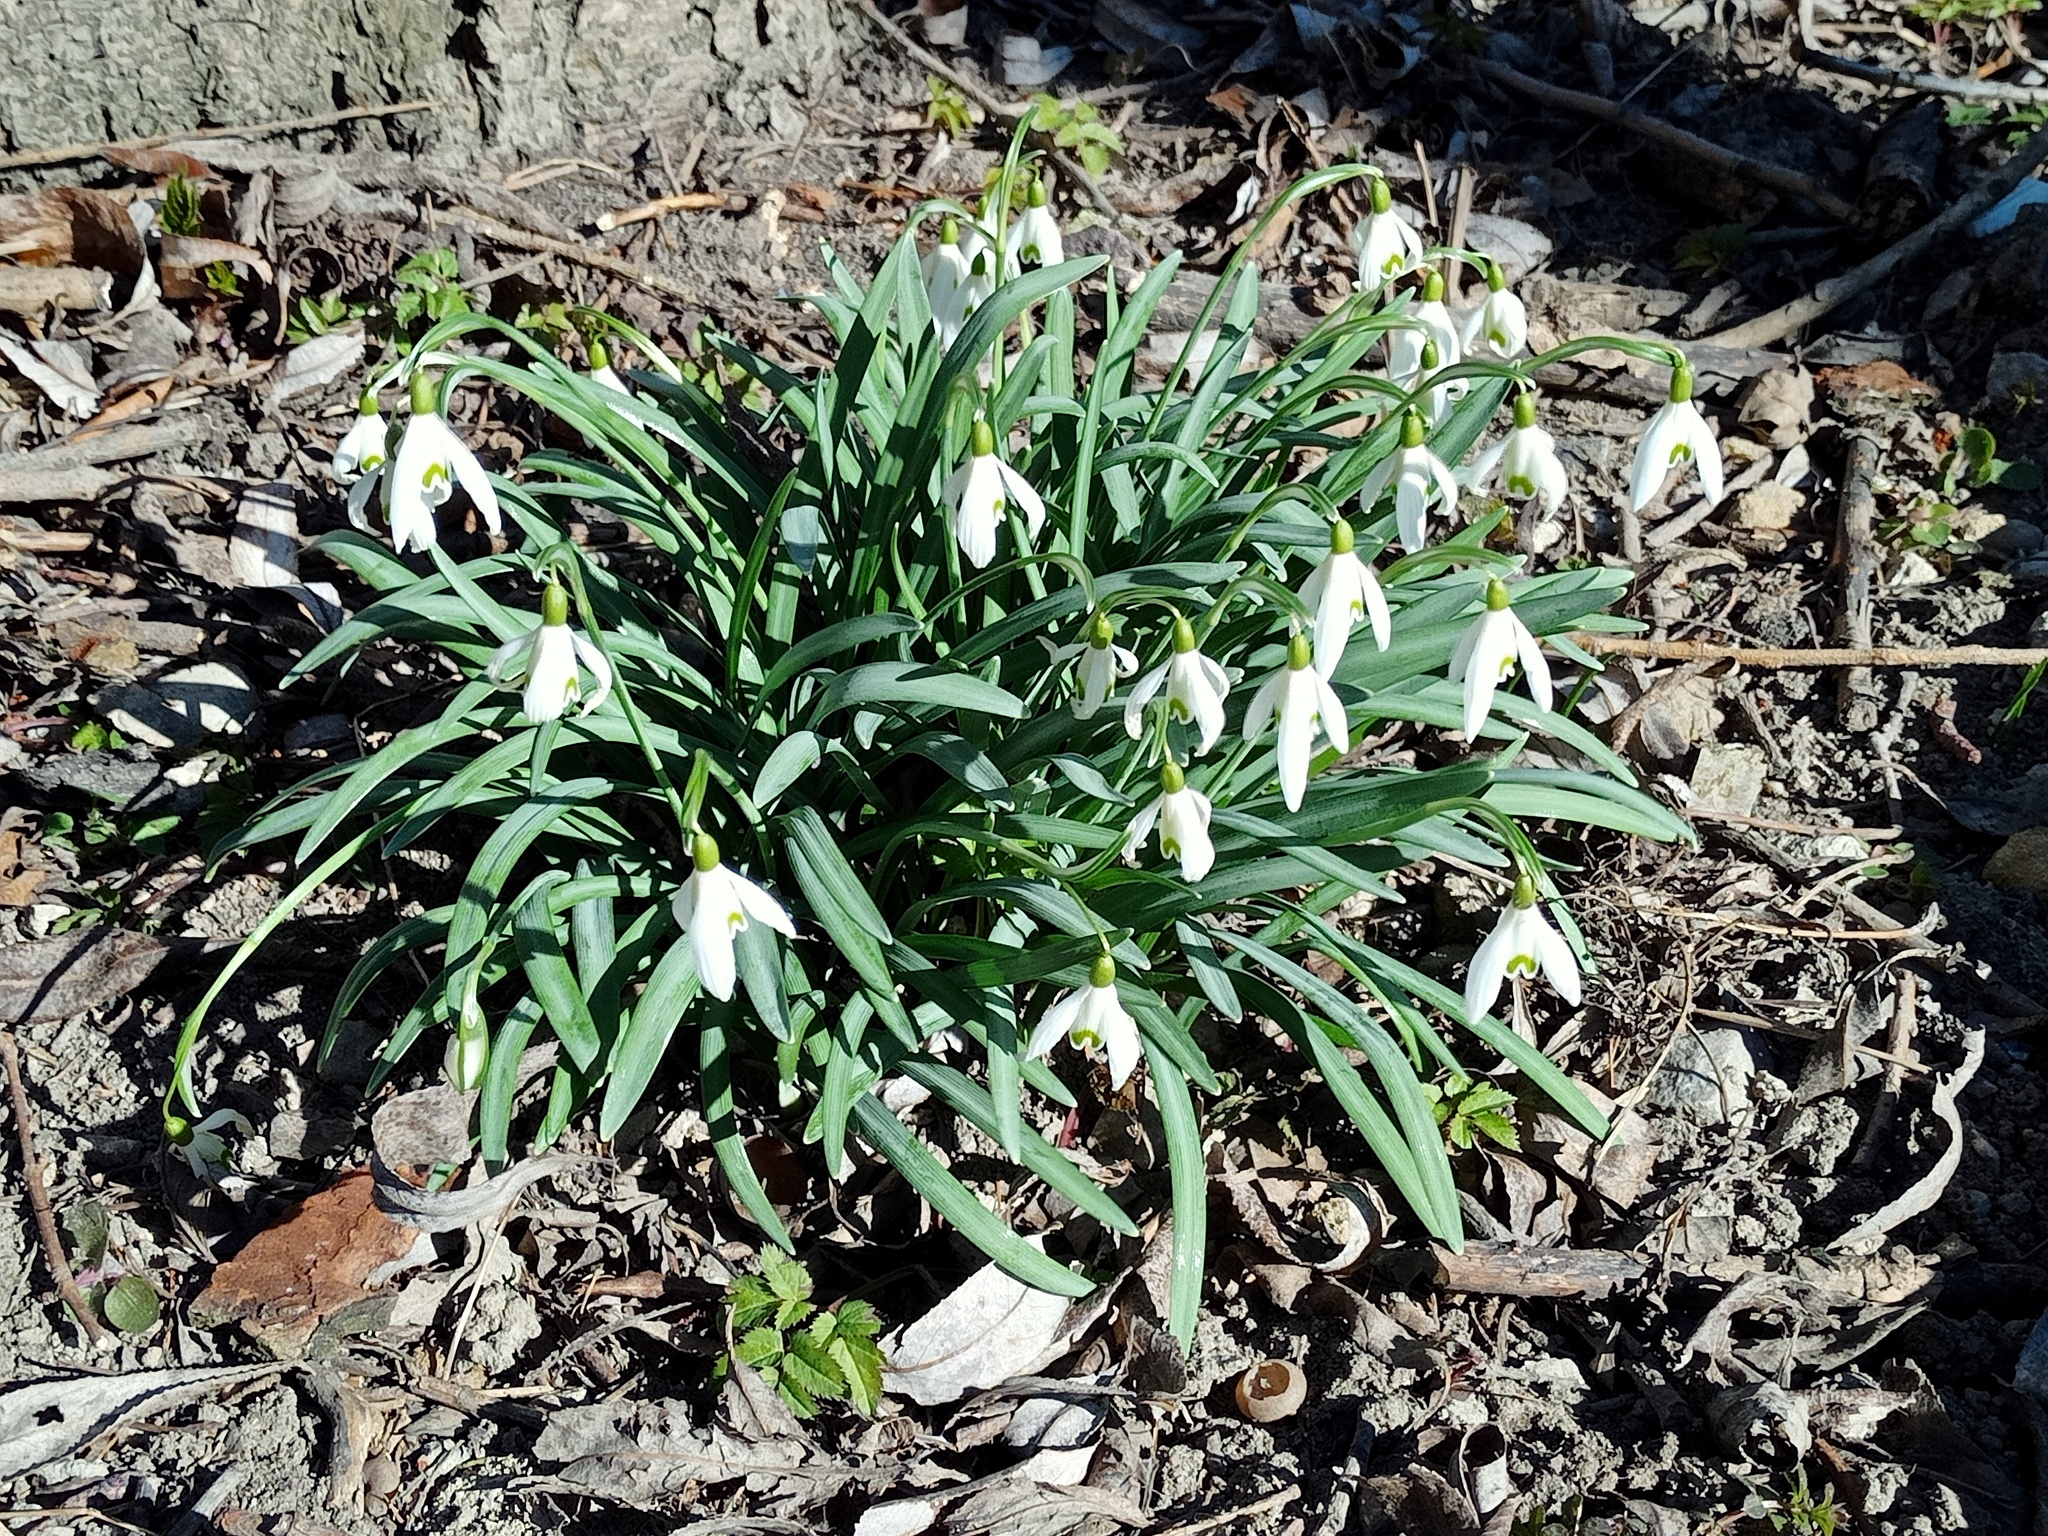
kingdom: Plantae
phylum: Tracheophyta
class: Liliopsida
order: Asparagales
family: Amaryllidaceae
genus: Galanthus
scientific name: Galanthus nivalis
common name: Snowdrop
